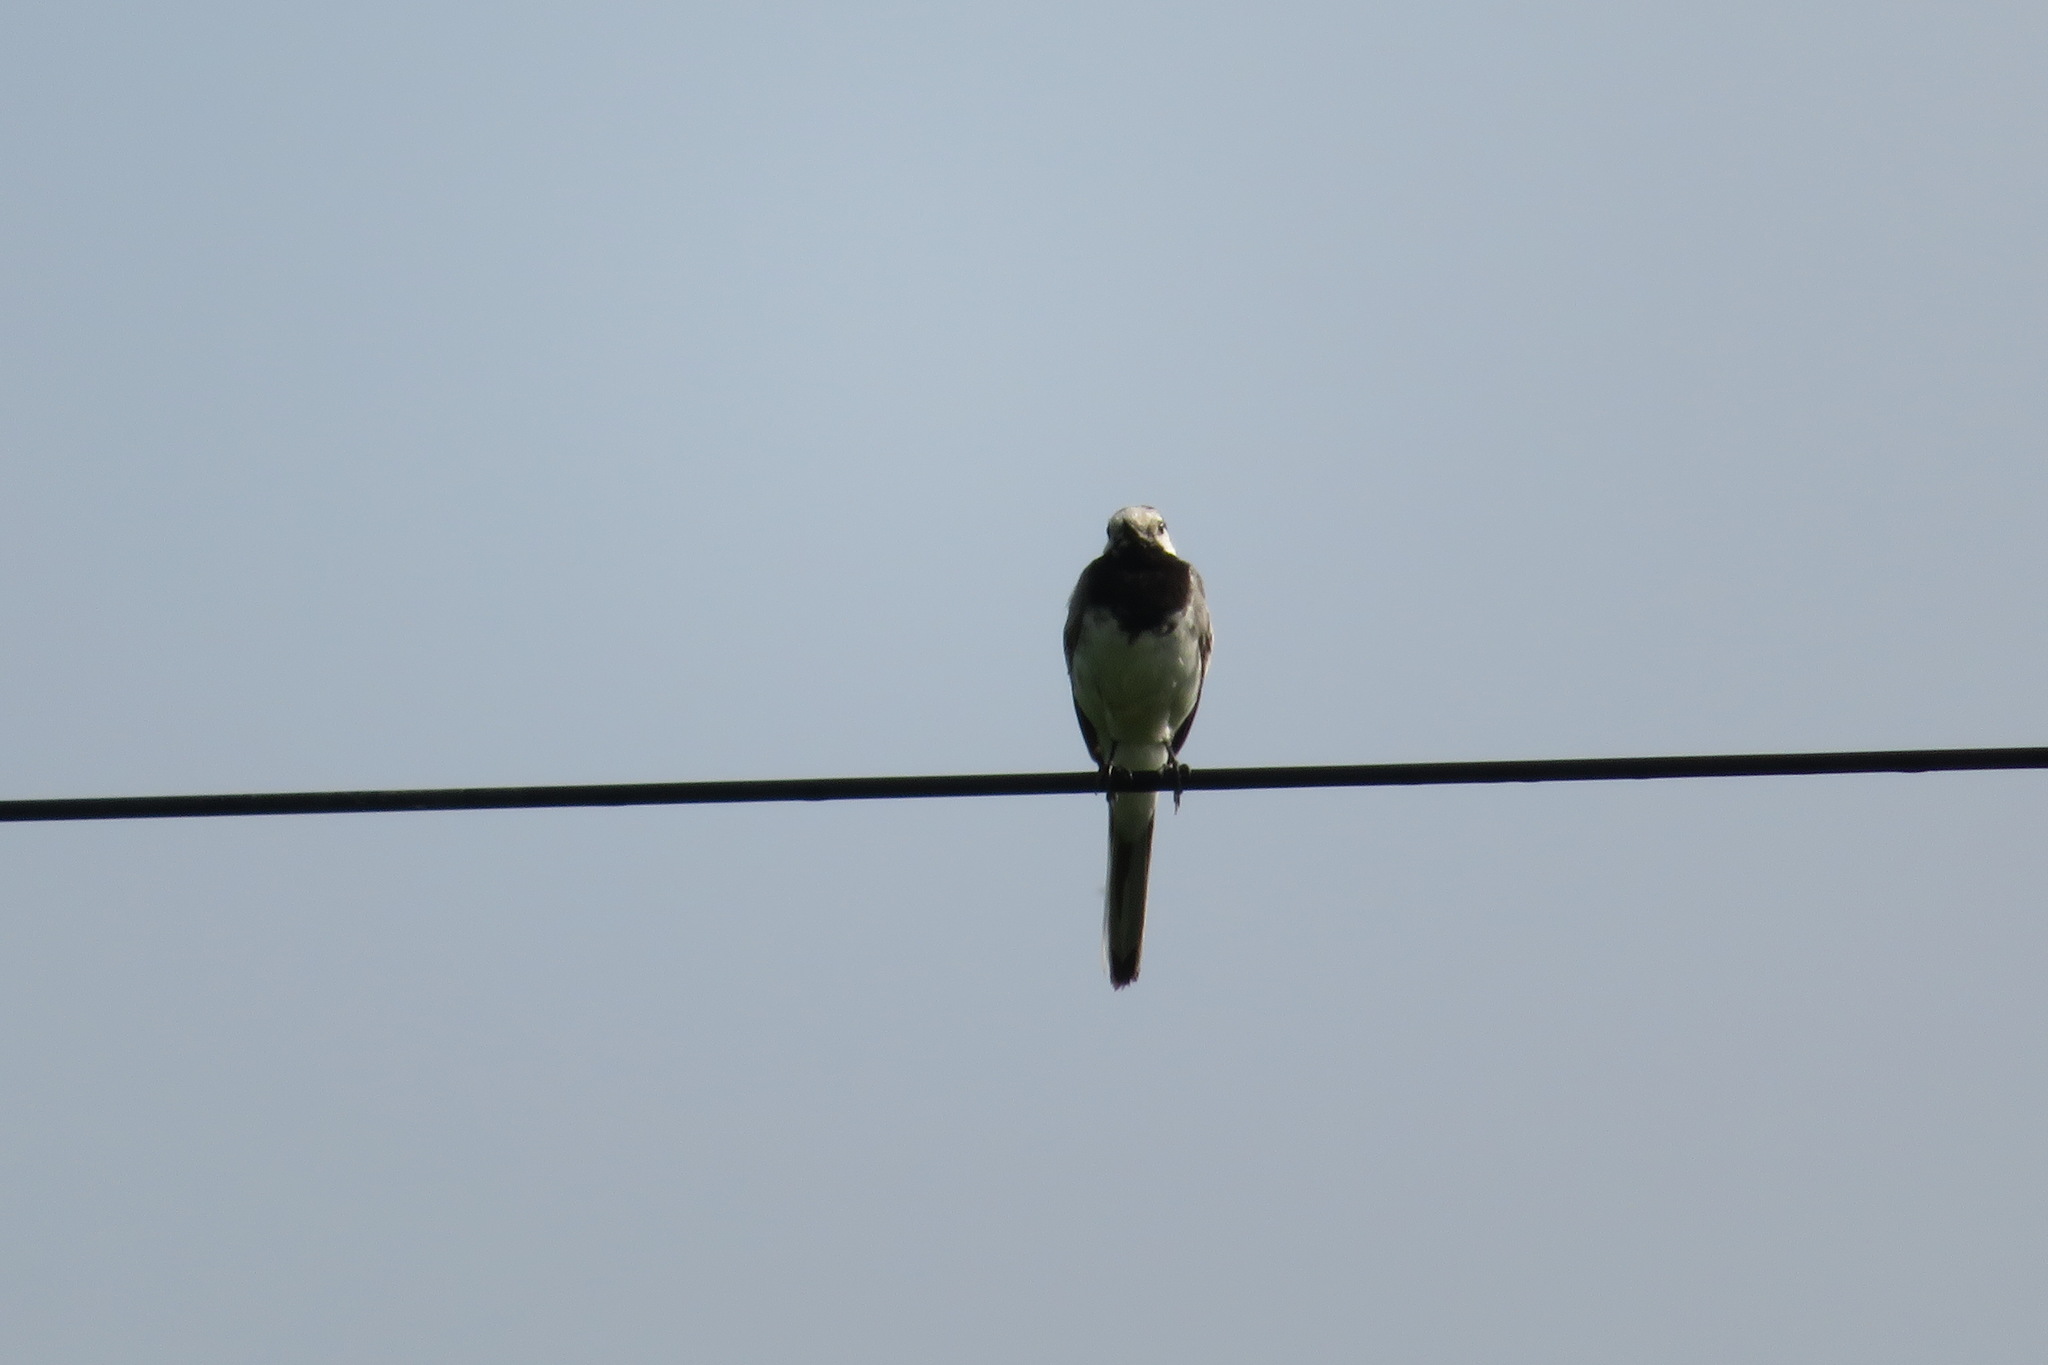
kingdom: Animalia
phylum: Chordata
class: Aves
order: Passeriformes
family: Motacillidae
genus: Motacilla
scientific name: Motacilla alba
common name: White wagtail
